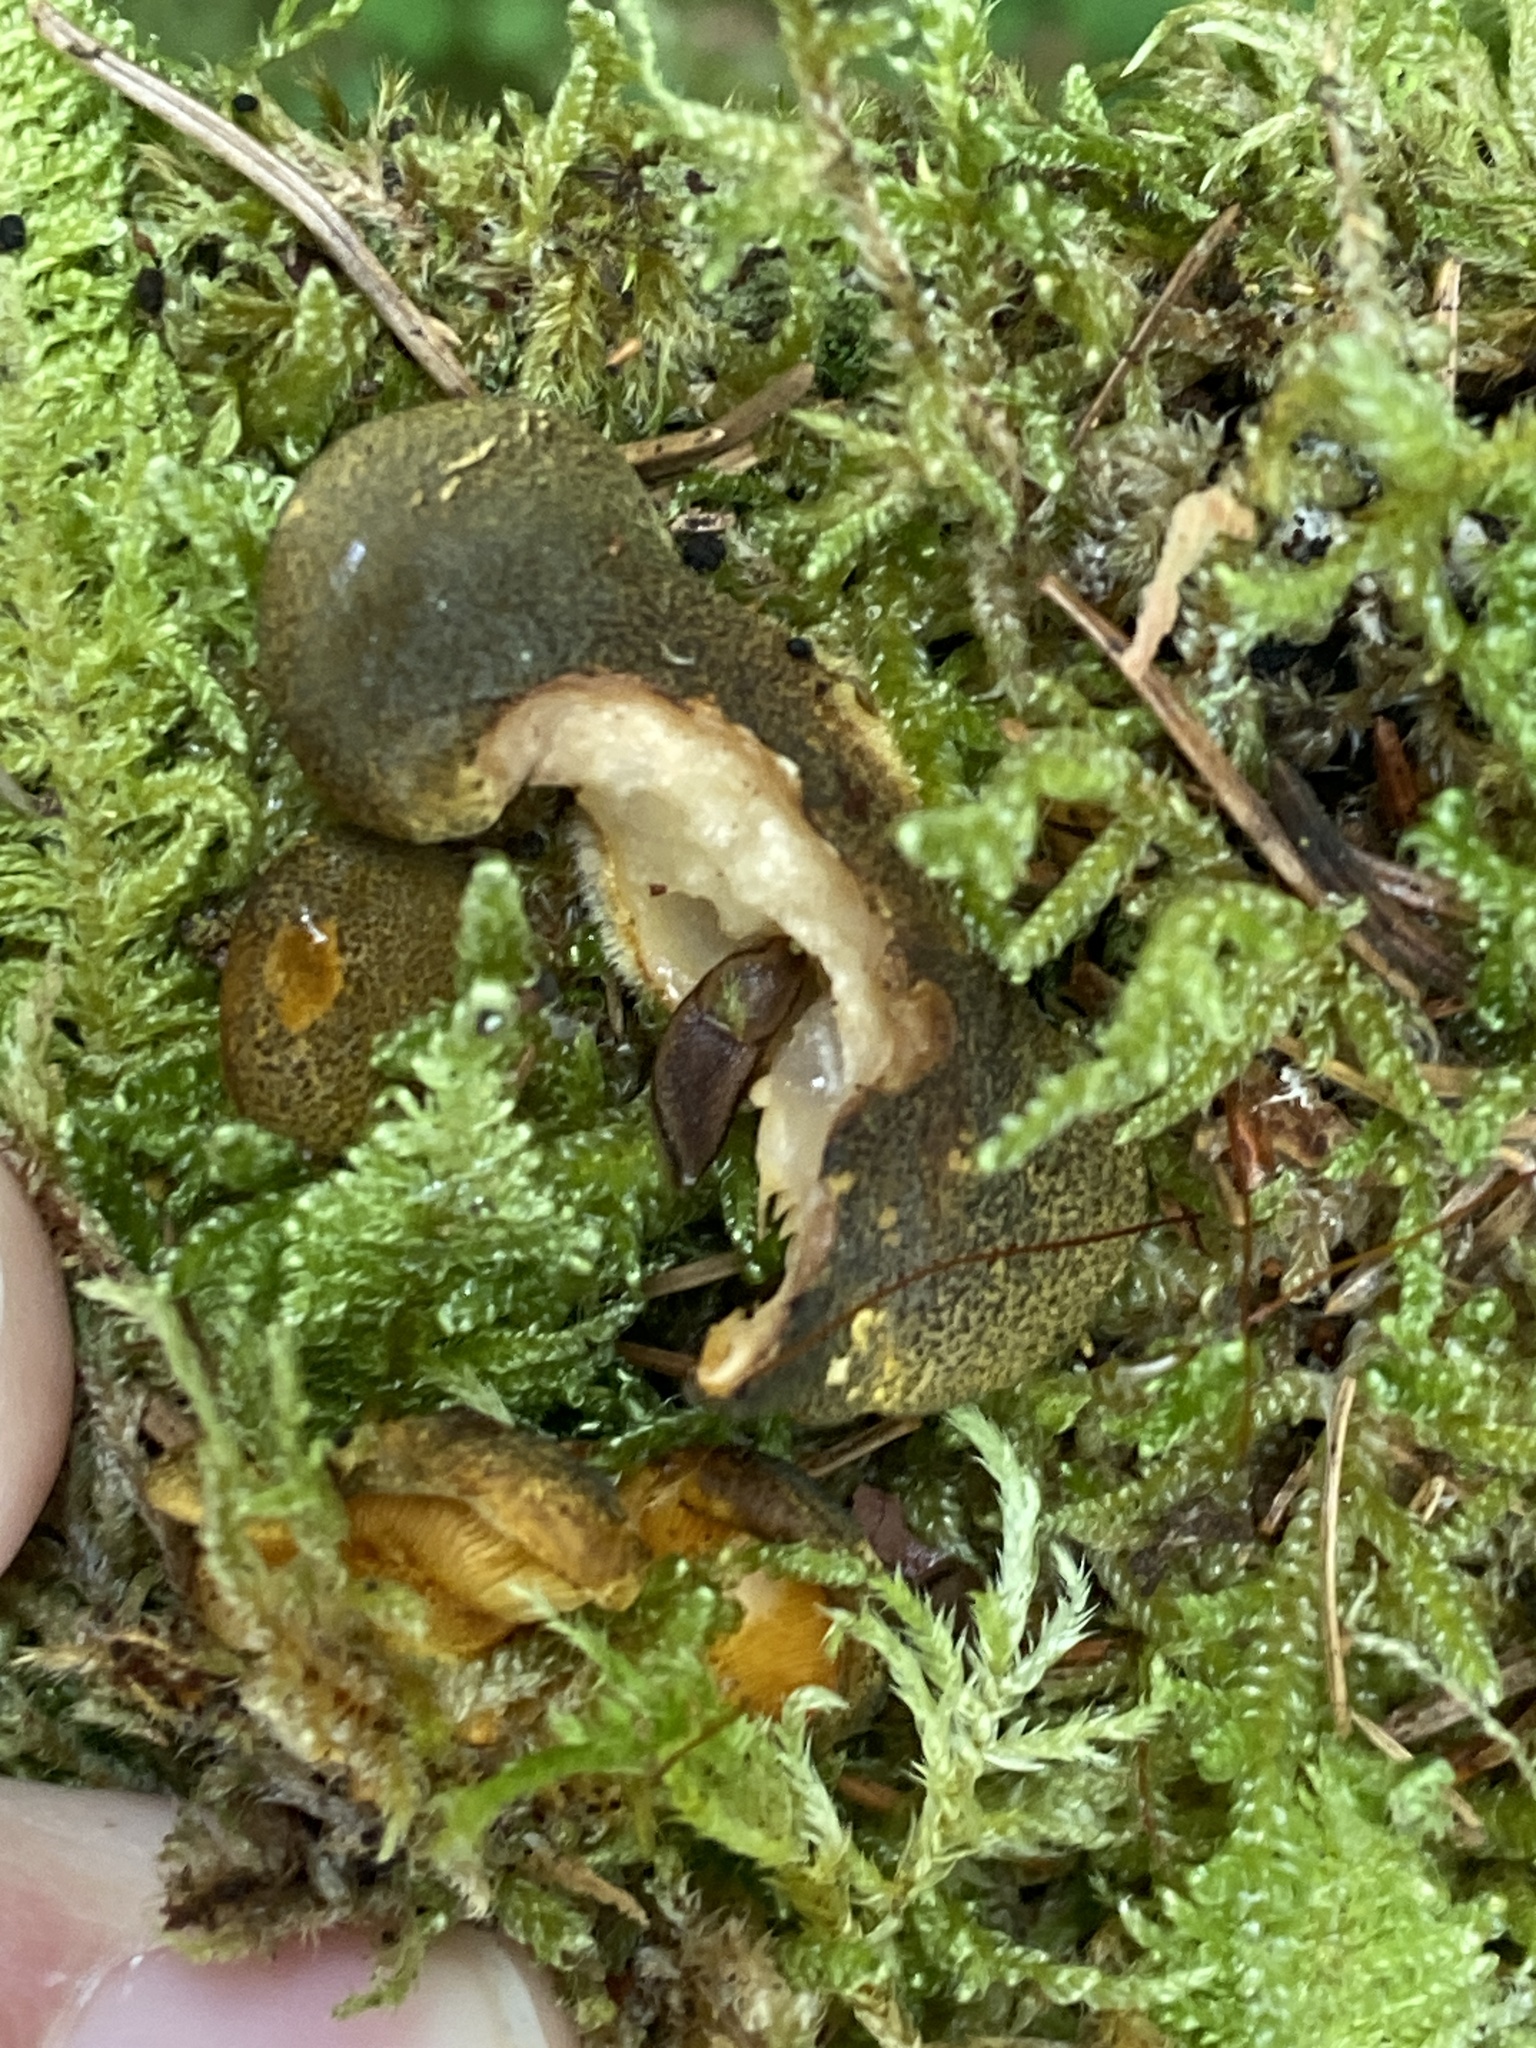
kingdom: Fungi
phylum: Basidiomycota
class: Agaricomycetes
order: Agaricales
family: Sarcomyxaceae
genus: Sarcomyxa
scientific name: Sarcomyxa serotina
